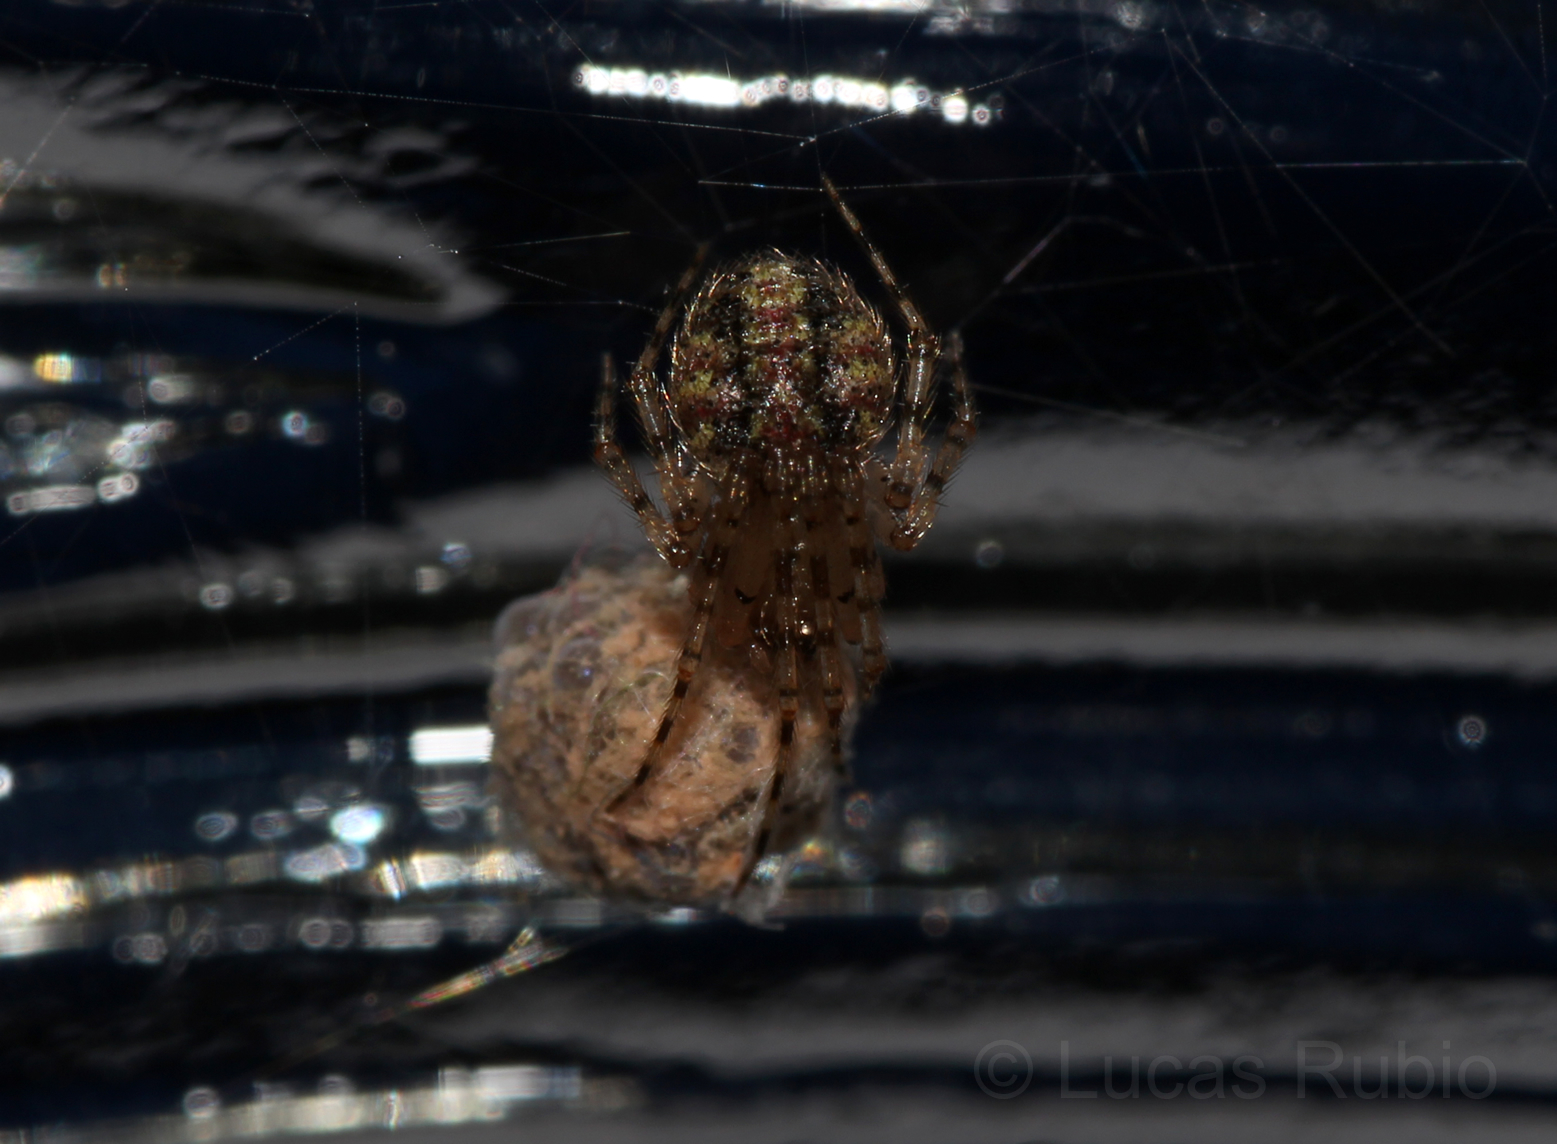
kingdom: Animalia
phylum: Arthropoda
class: Arachnida
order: Araneae
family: Theridiidae
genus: Platnickina
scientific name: Platnickina mneon
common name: Theridiid spidereater
